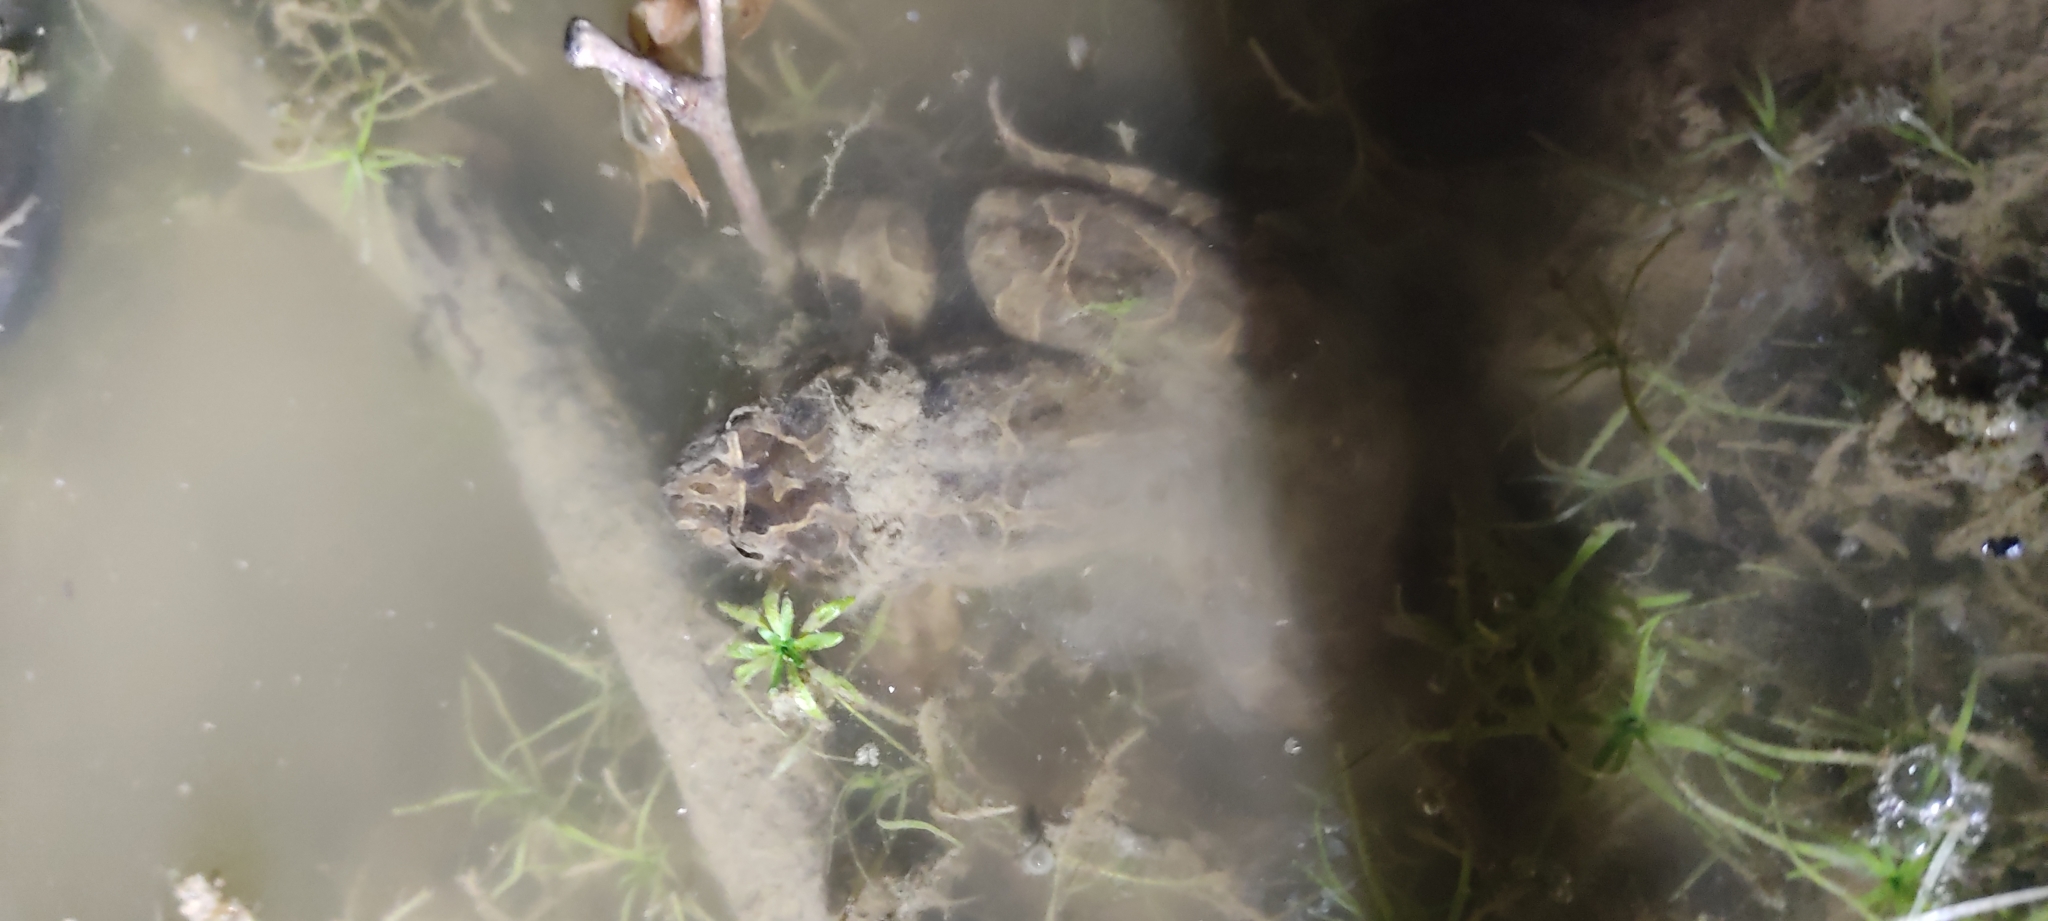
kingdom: Animalia
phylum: Chordata
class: Amphibia
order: Anura
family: Alytidae
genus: Discoglossus
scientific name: Discoglossus pictus
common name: Painted frog
